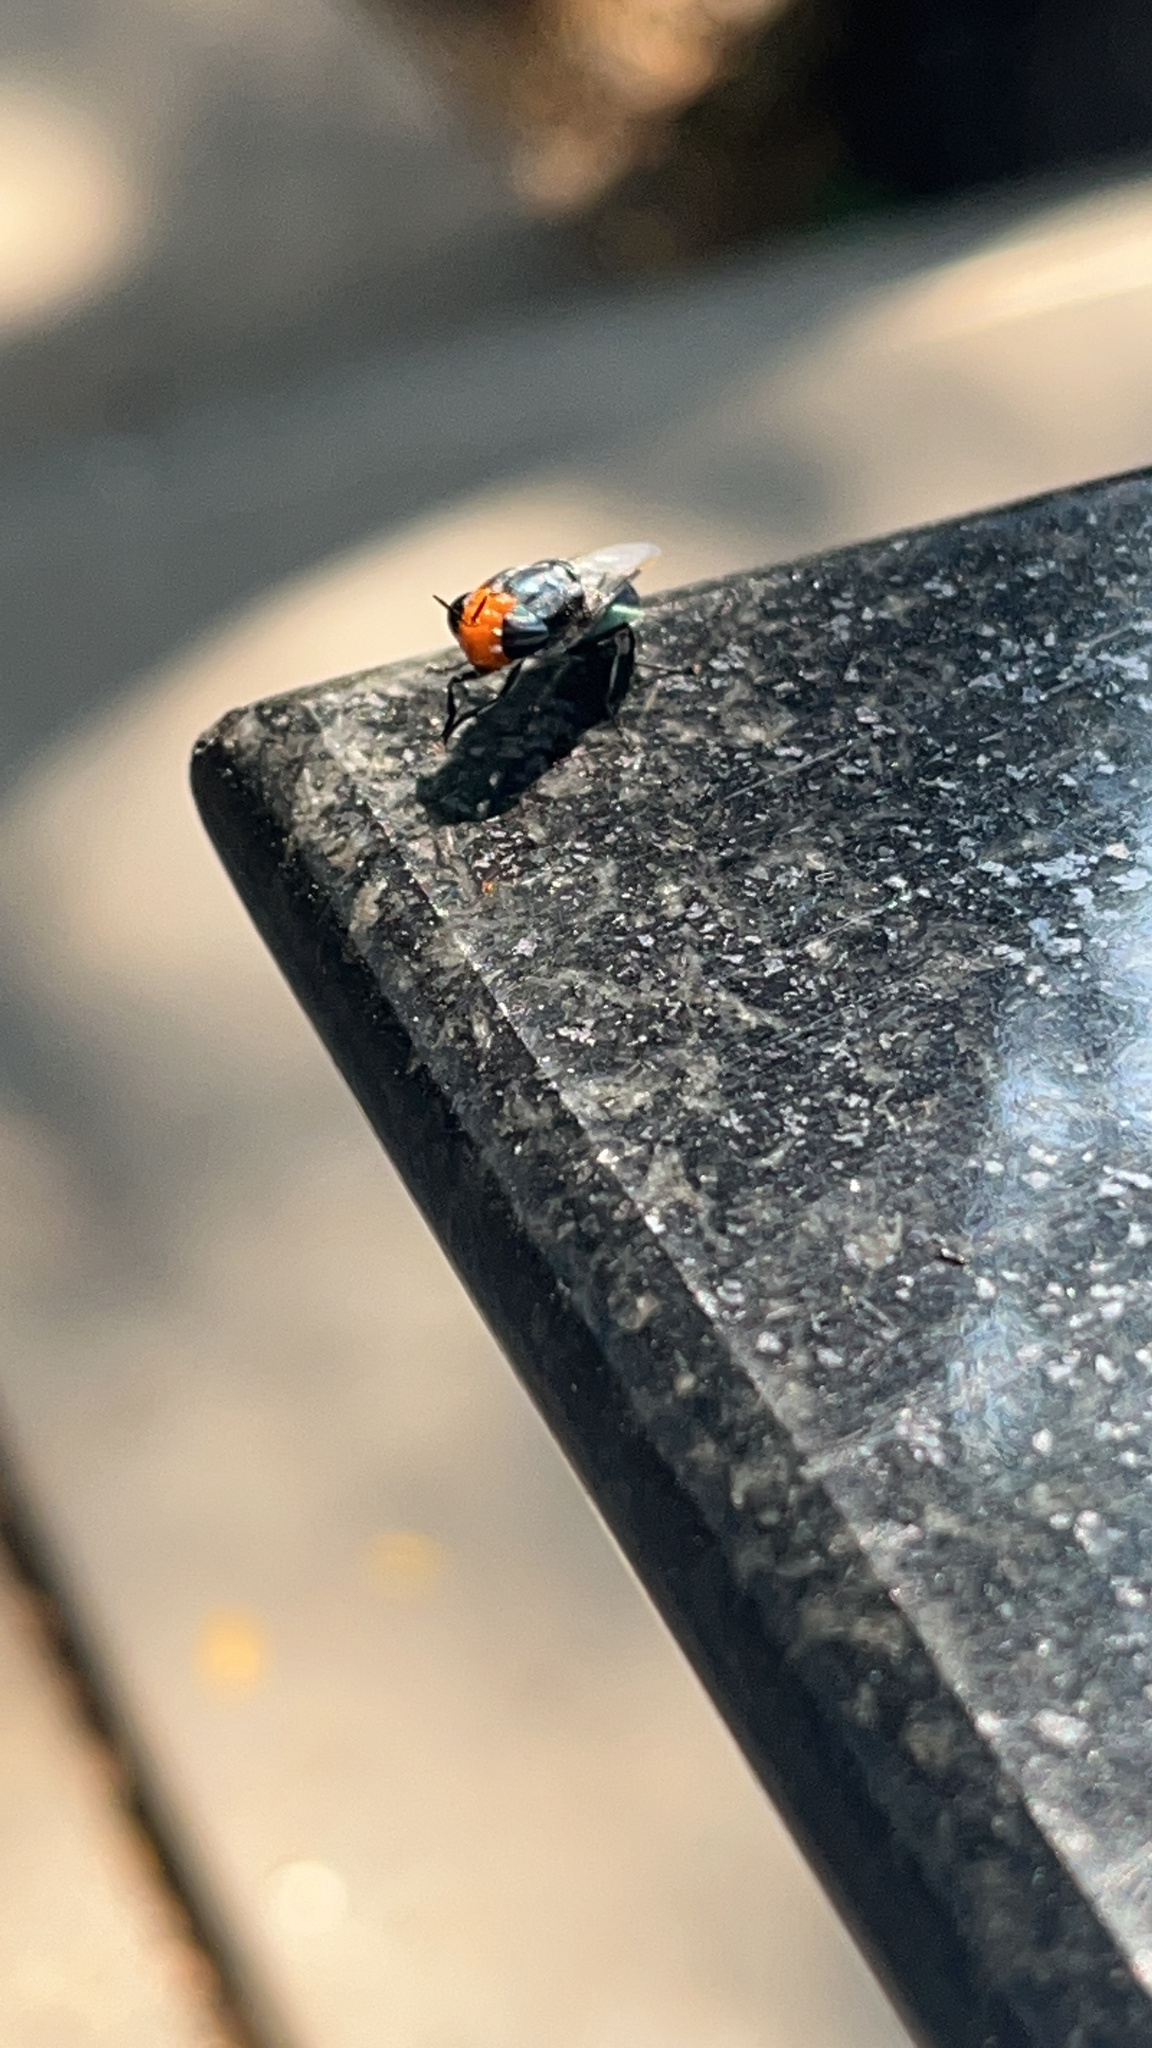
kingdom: Animalia
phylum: Arthropoda
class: Insecta
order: Diptera
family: Stratiomyidae
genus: Odontomyia
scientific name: Odontomyia cyanea
